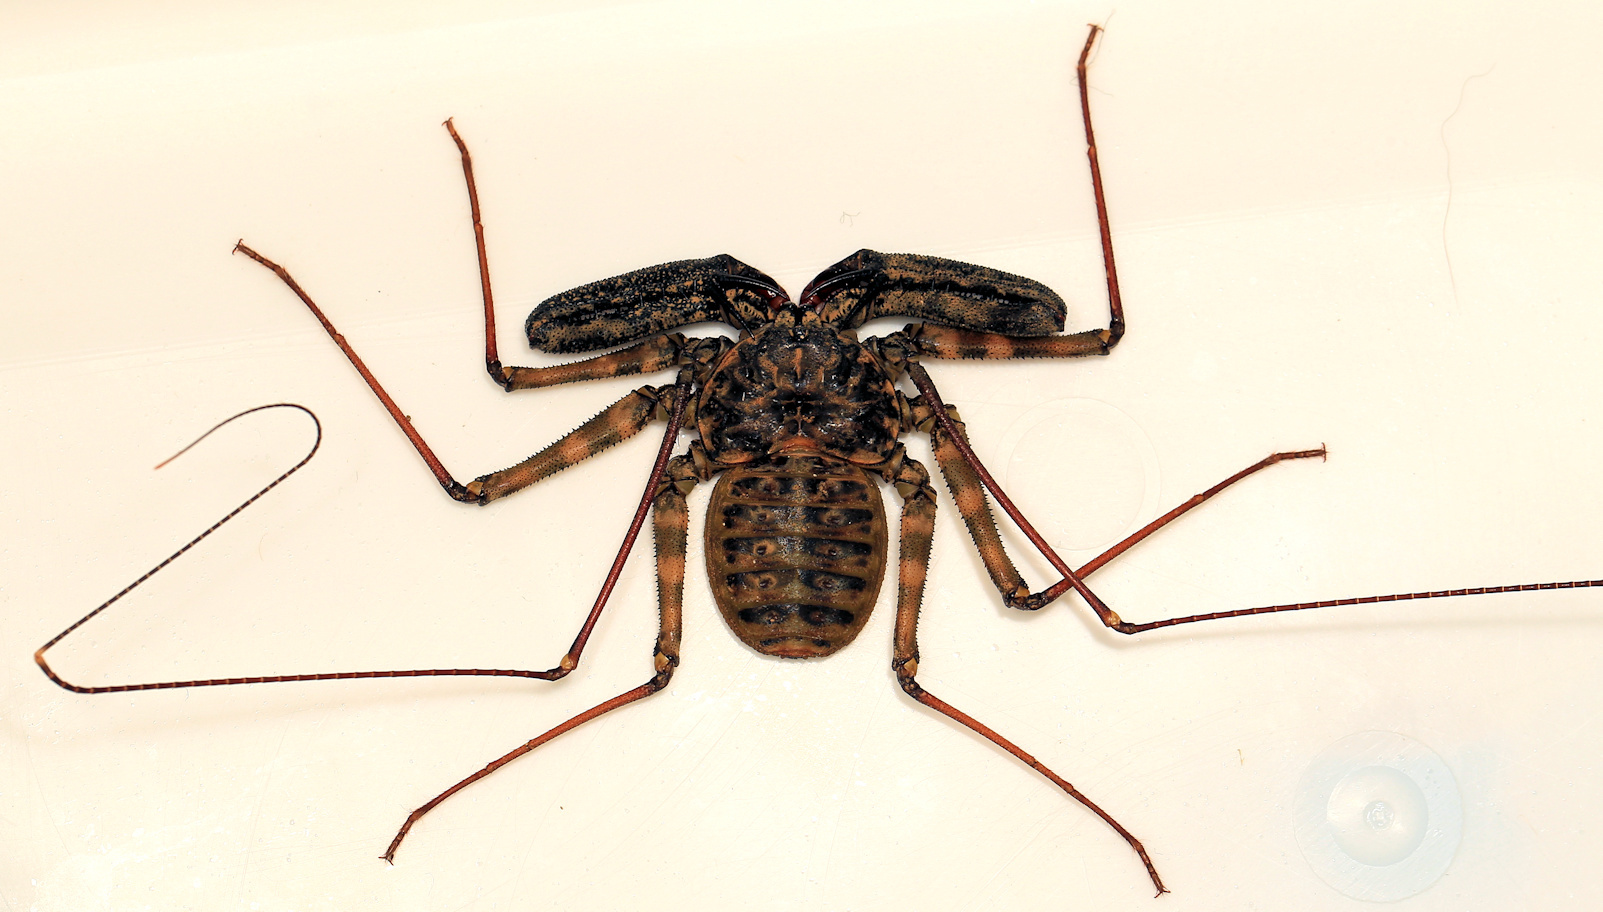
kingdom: Animalia
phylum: Arthropoda
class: Arachnida
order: Amblypygi
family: Phrynichidae
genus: Damon
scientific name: Damon variegatus
